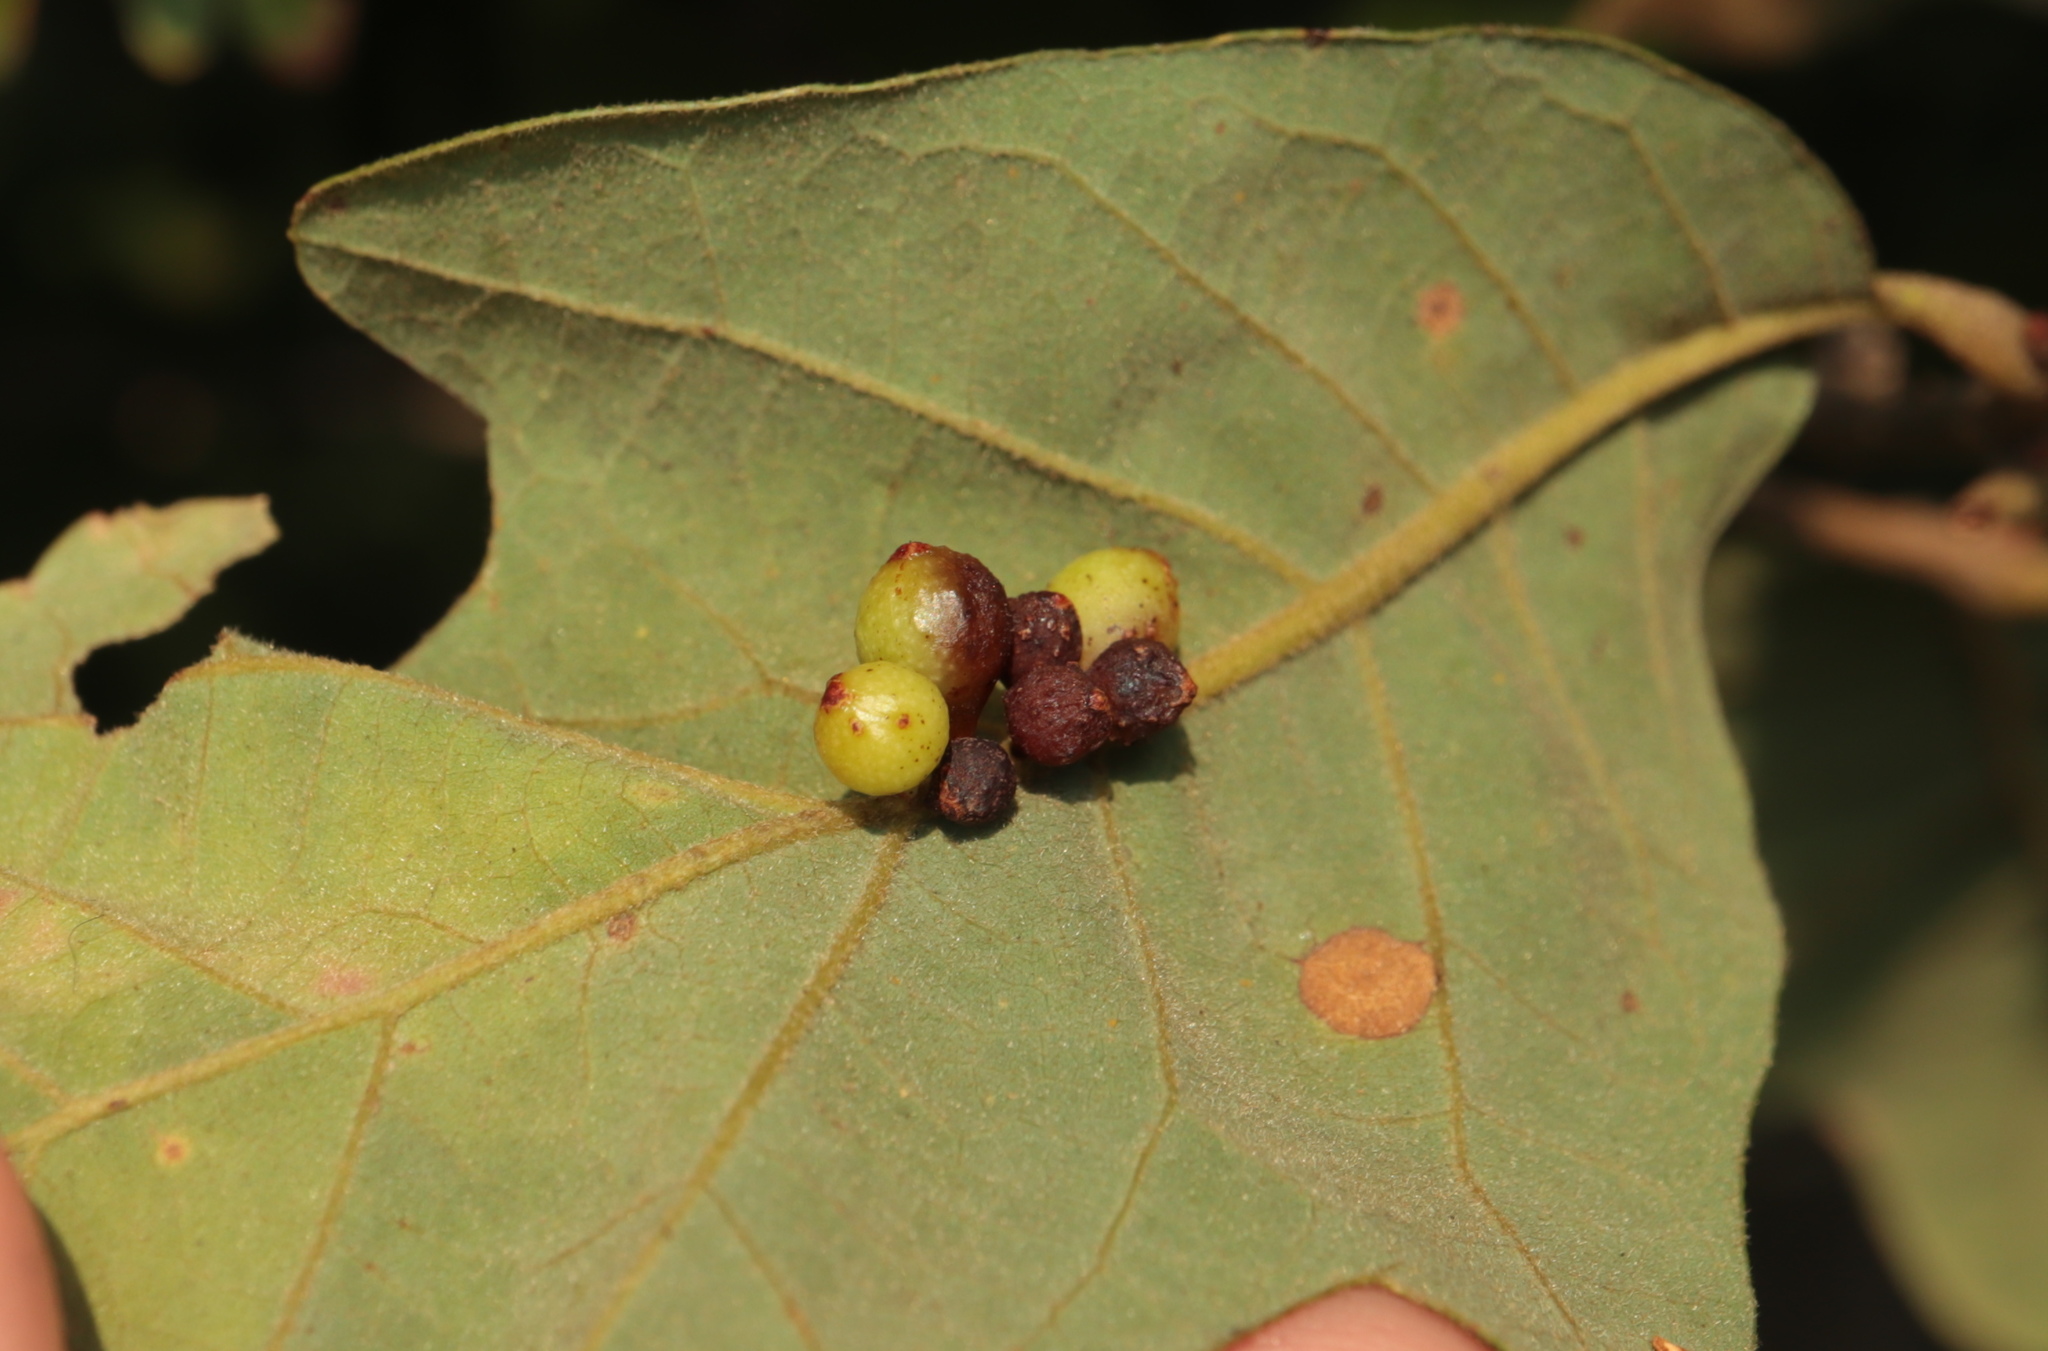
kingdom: Animalia
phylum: Arthropoda
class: Insecta
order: Hymenoptera
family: Cynipidae
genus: Andricus
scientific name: Andricus
